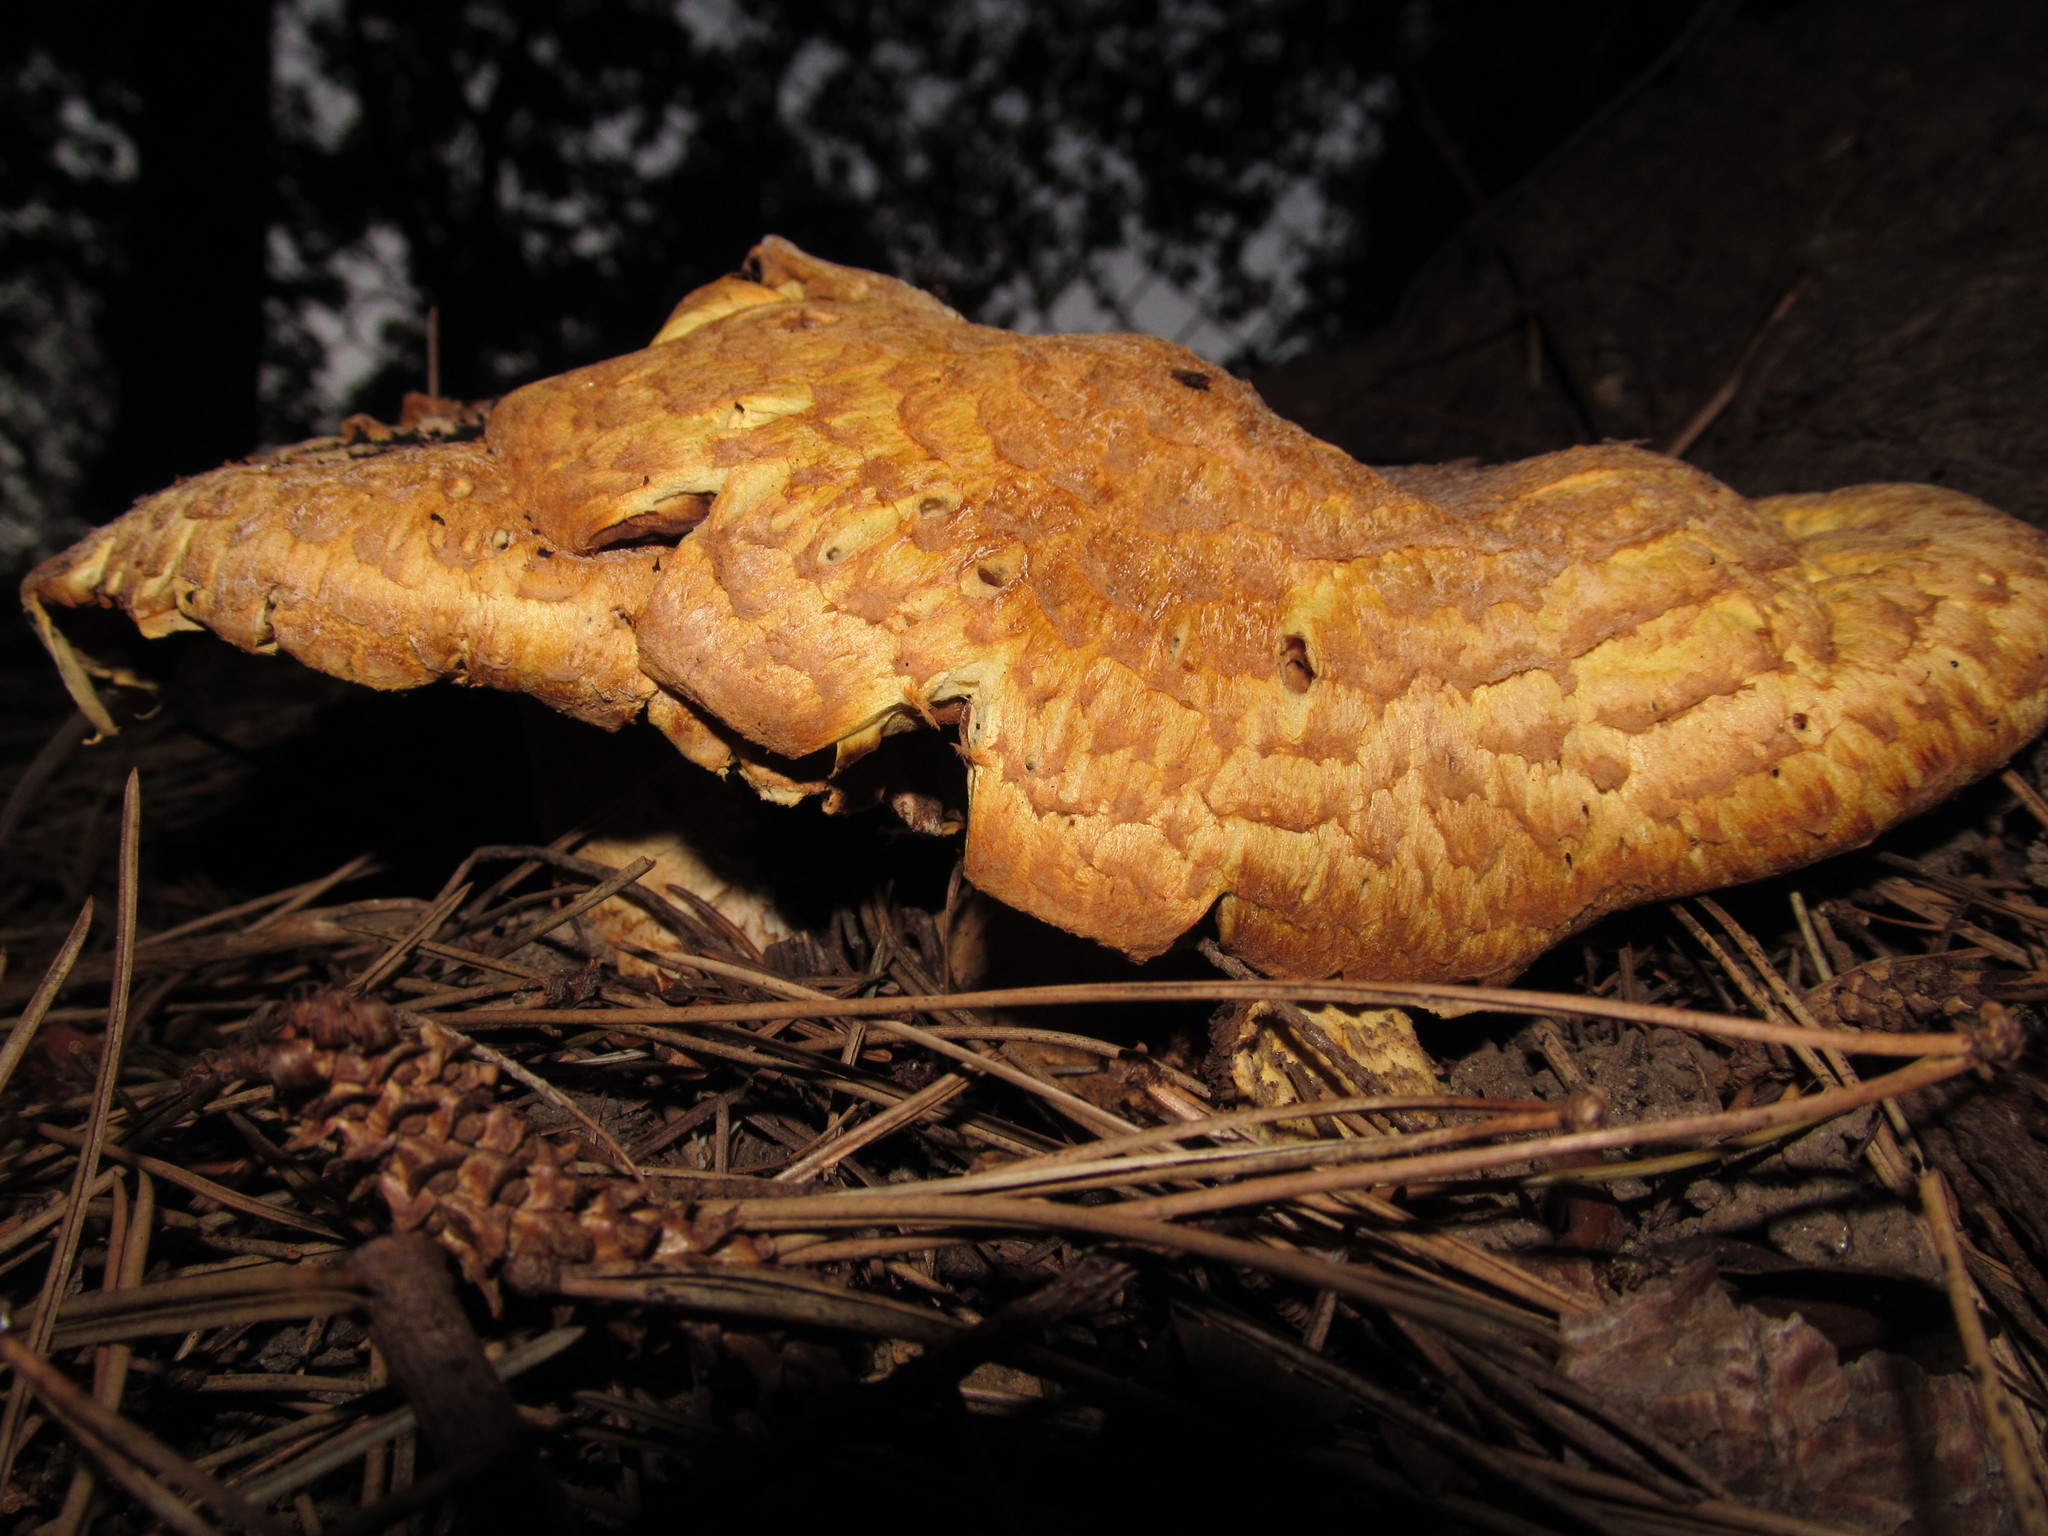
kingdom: Fungi
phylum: Basidiomycota
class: Agaricomycetes
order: Agaricales
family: Agaricaceae
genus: Agaricus
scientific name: Agaricus augustus
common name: Prince
